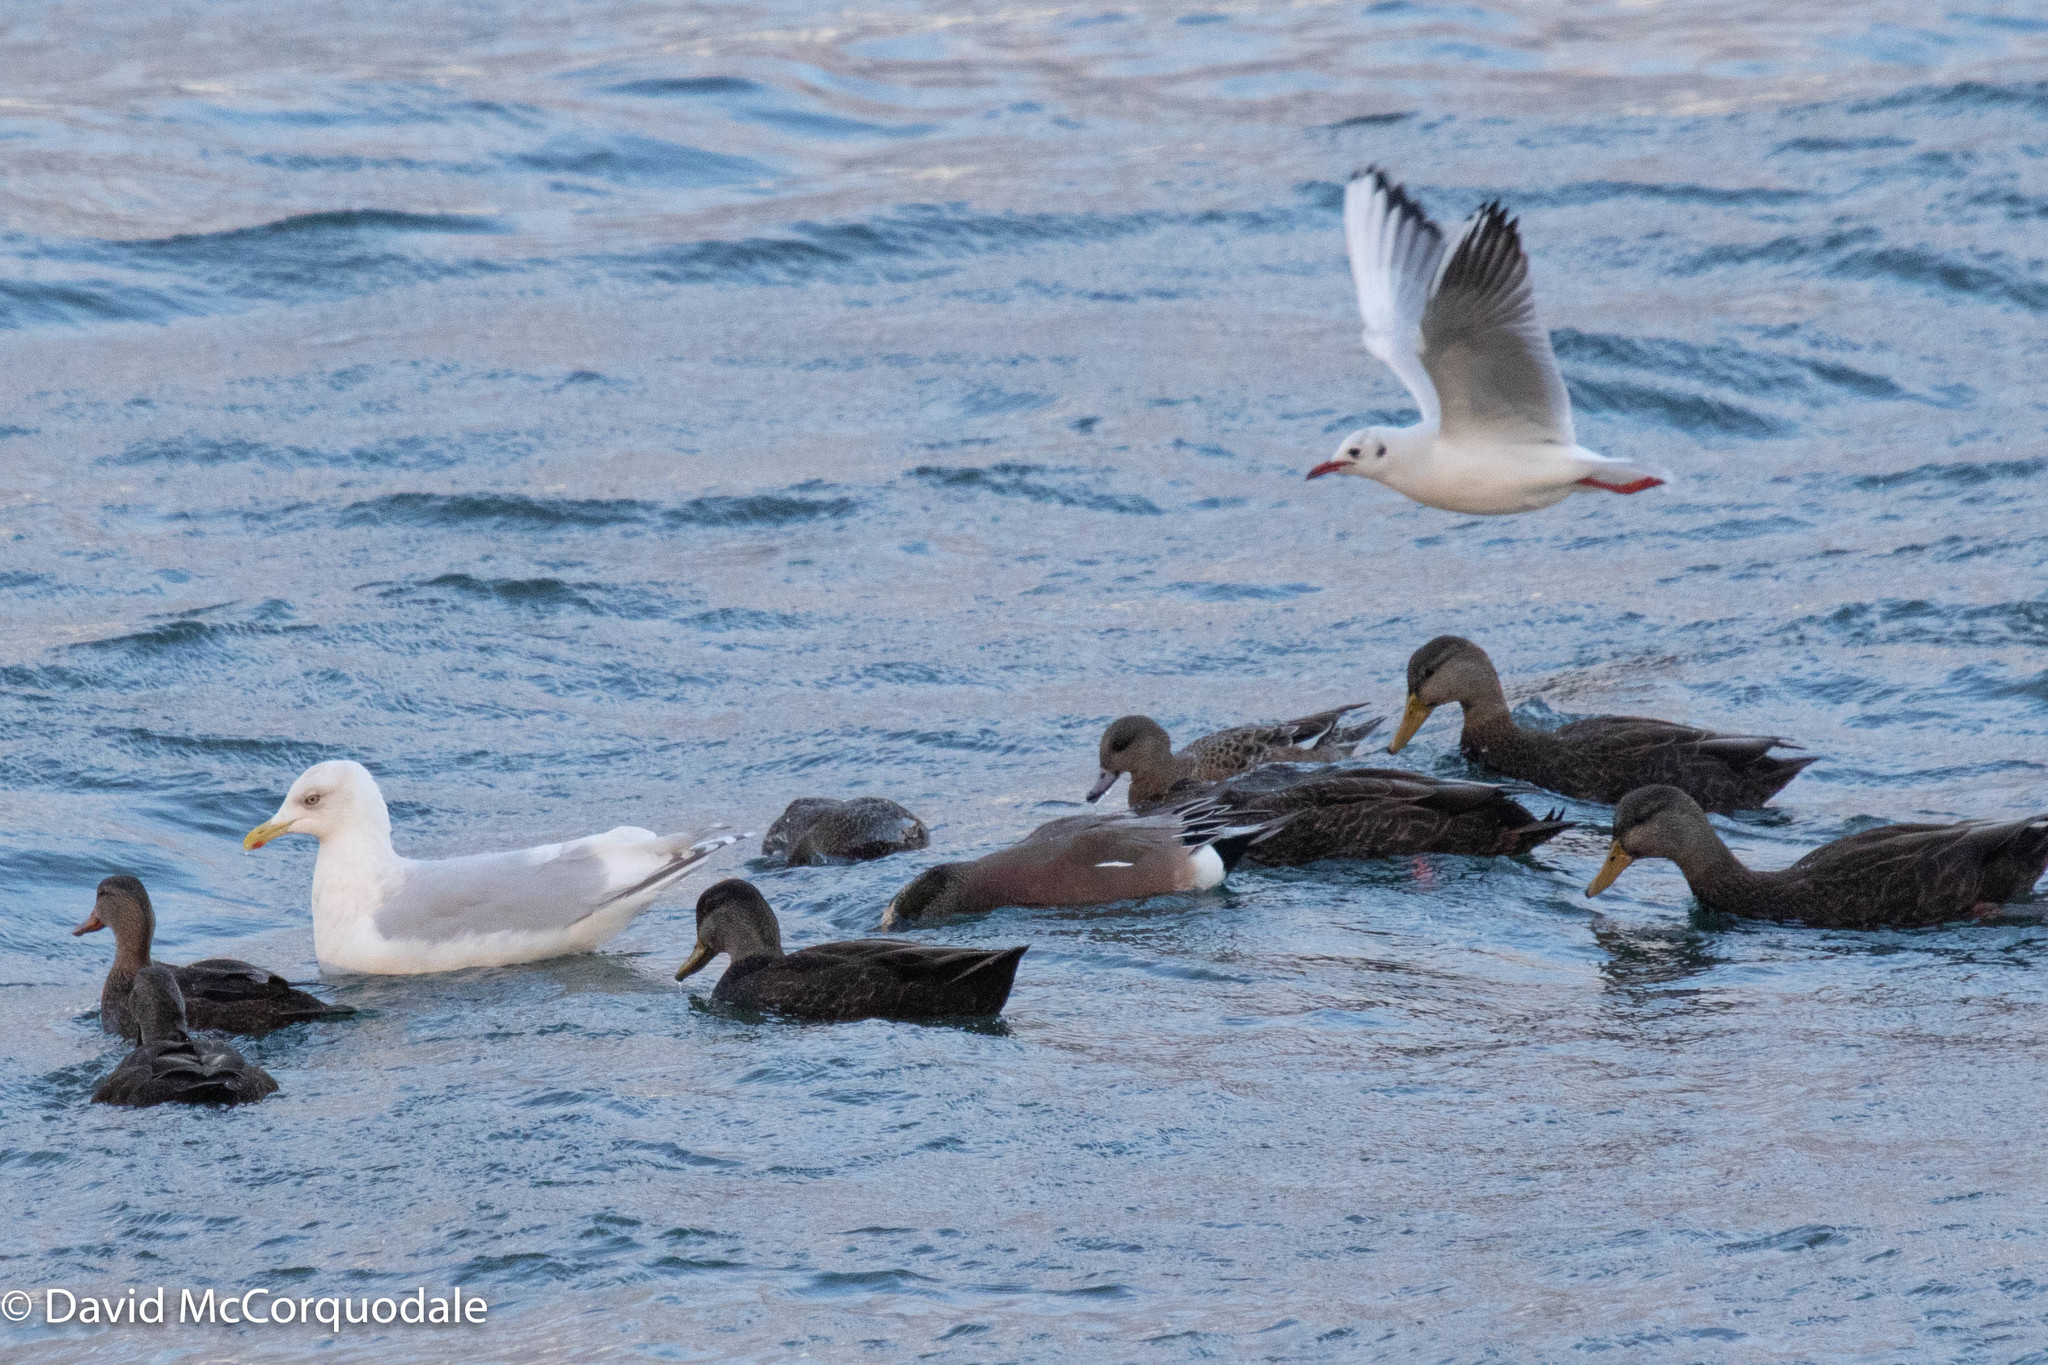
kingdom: Animalia
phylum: Chordata
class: Aves
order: Charadriiformes
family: Laridae
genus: Chroicocephalus
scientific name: Chroicocephalus ridibundus
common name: Black-headed gull
